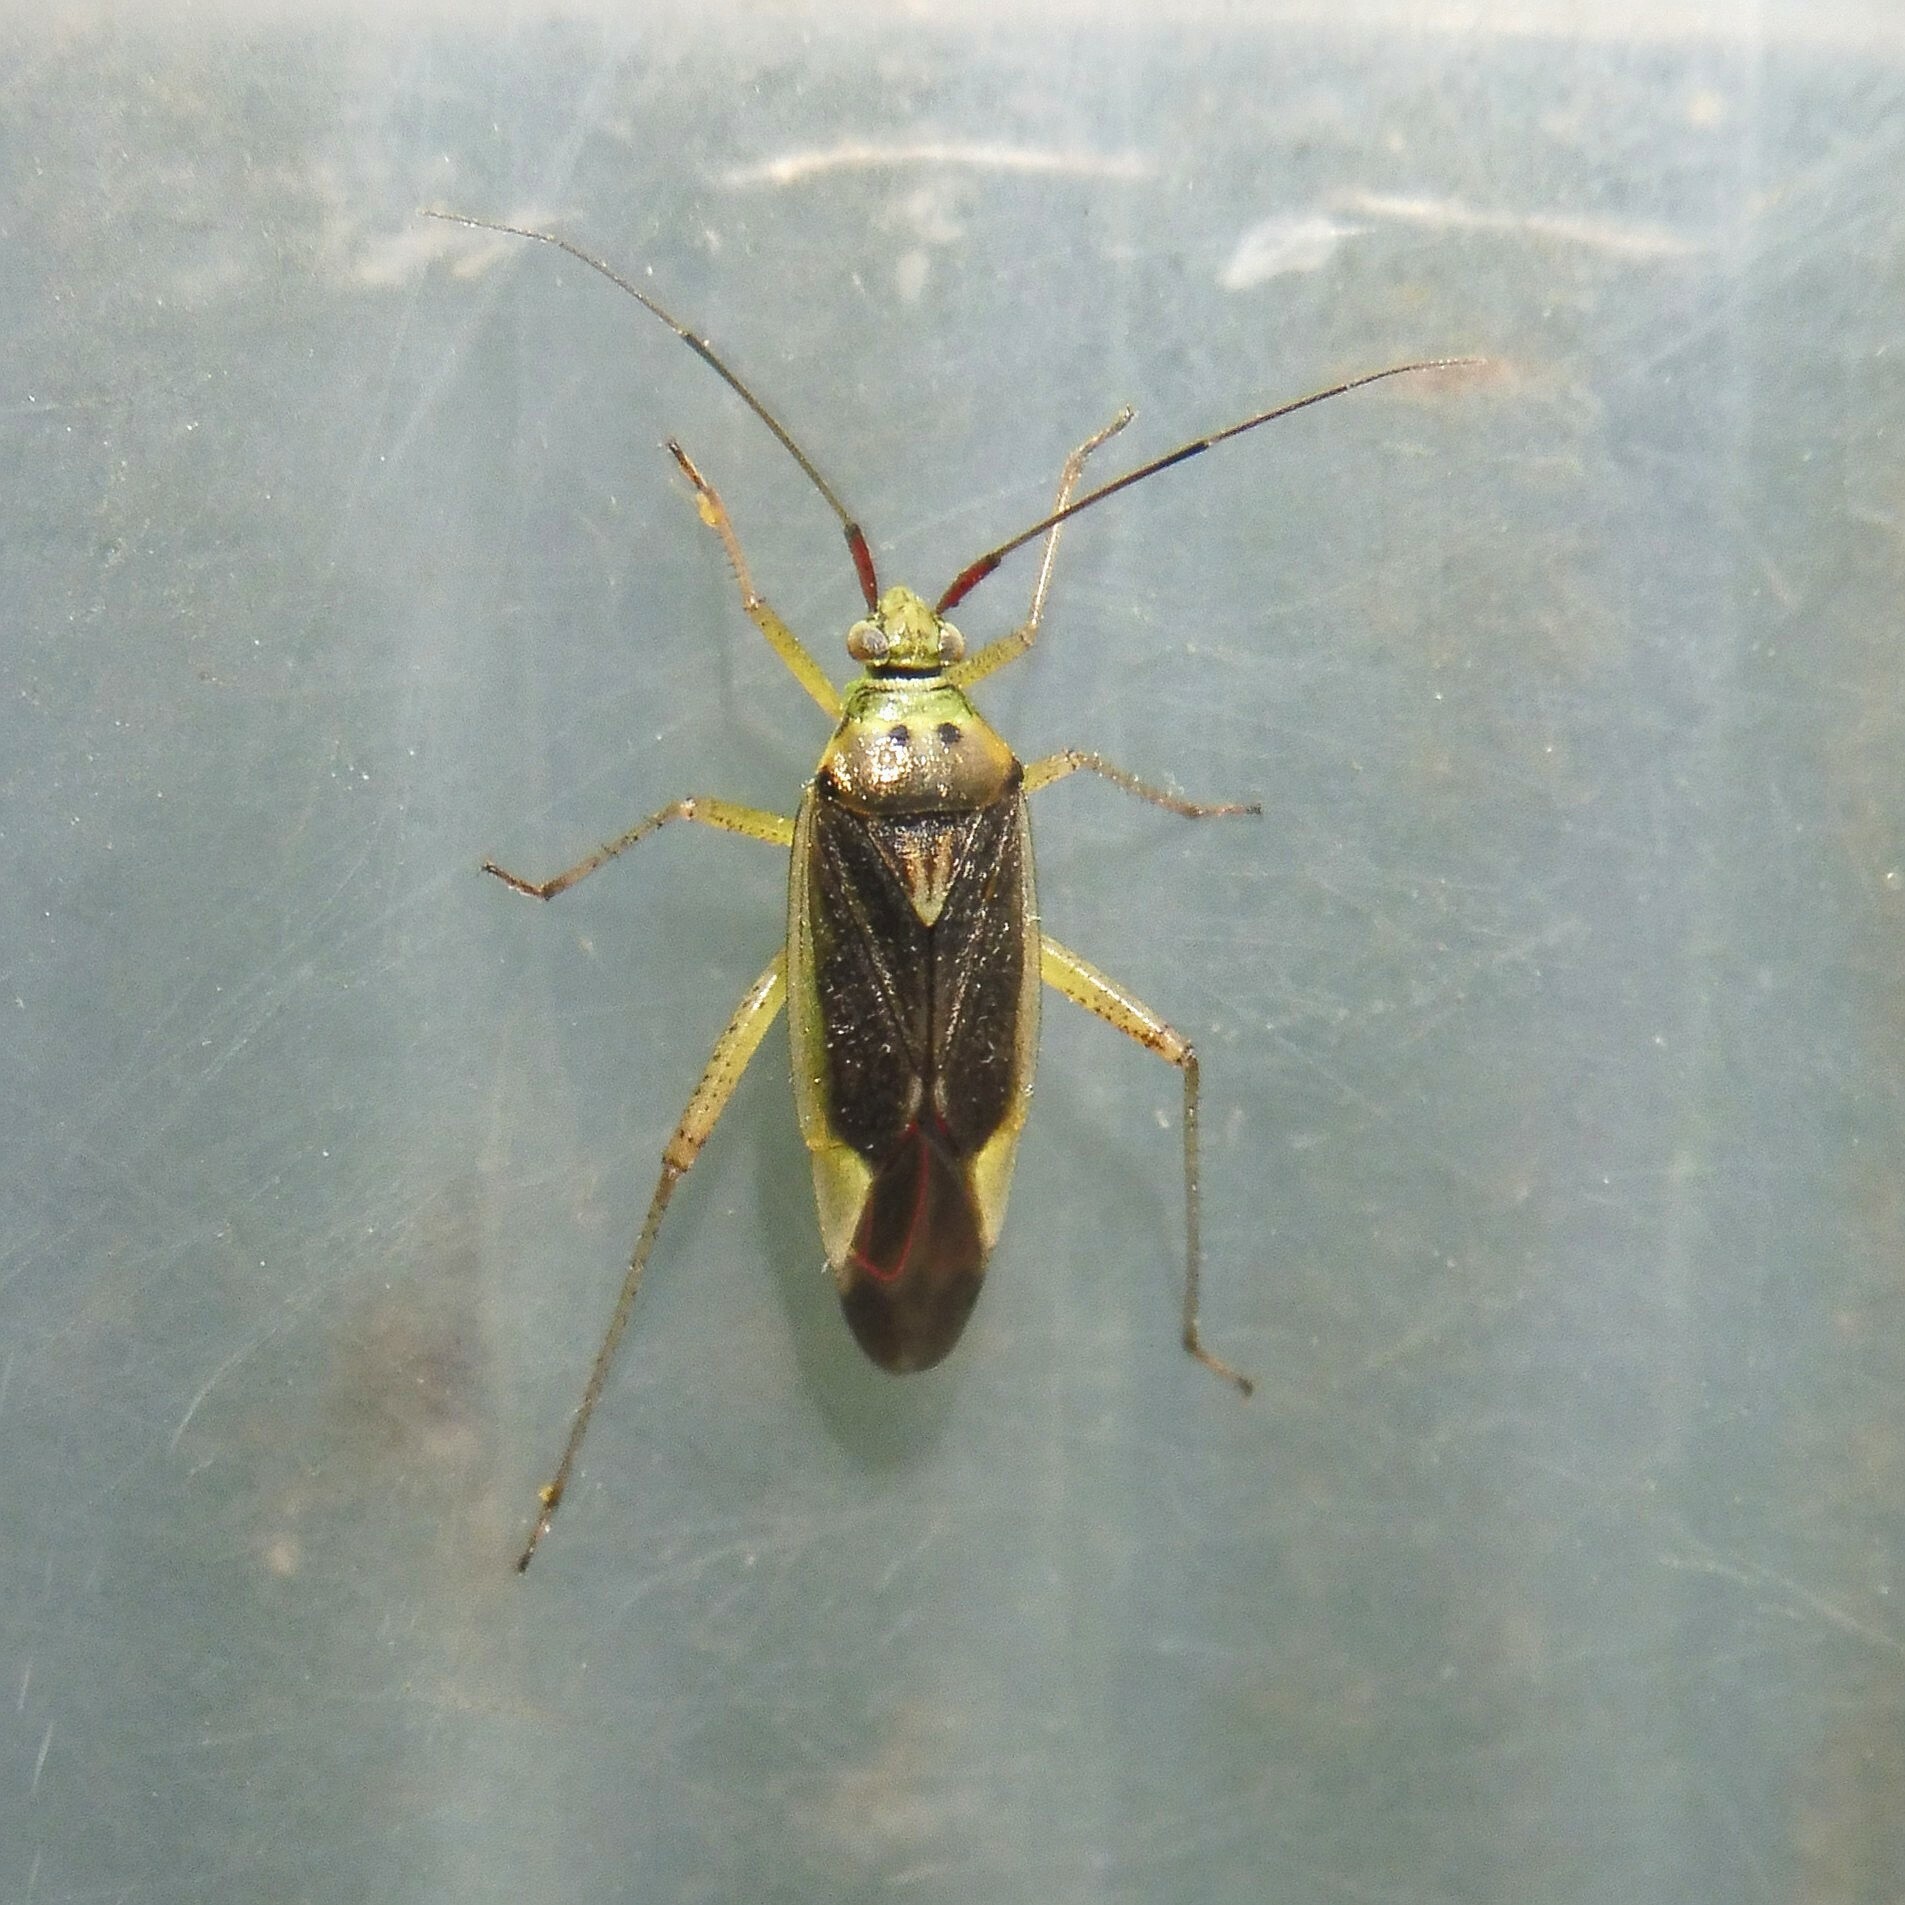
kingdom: Animalia
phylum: Arthropoda
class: Insecta
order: Hemiptera
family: Miridae
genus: Closterotomus
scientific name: Closterotomus trivialis
